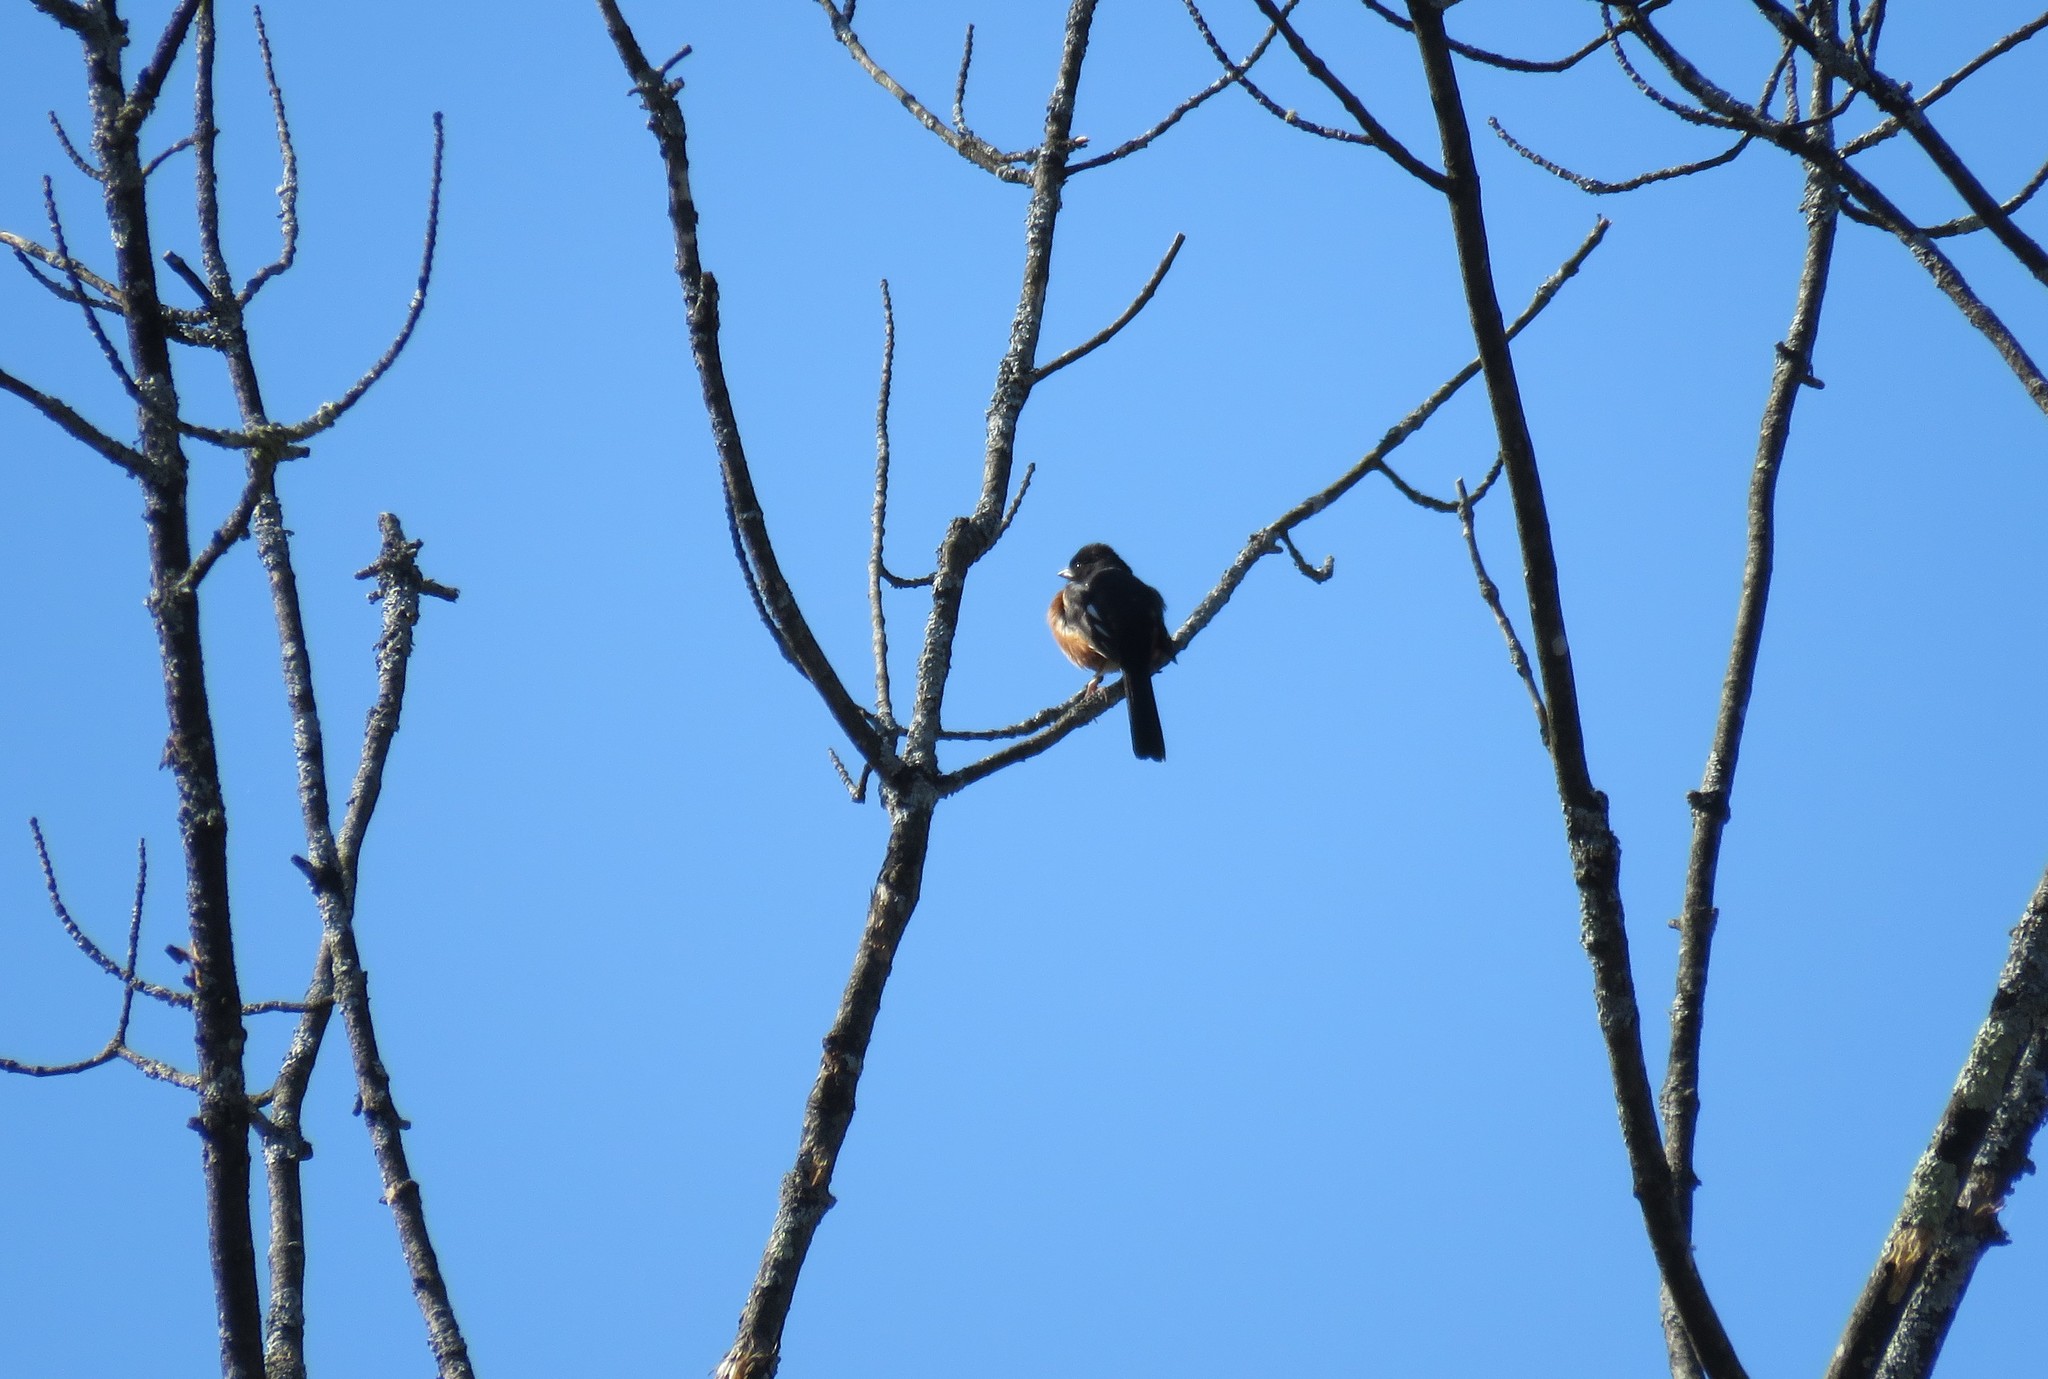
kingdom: Animalia
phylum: Chordata
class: Aves
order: Passeriformes
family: Passerellidae
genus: Pipilo
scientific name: Pipilo erythrophthalmus
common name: Eastern towhee
